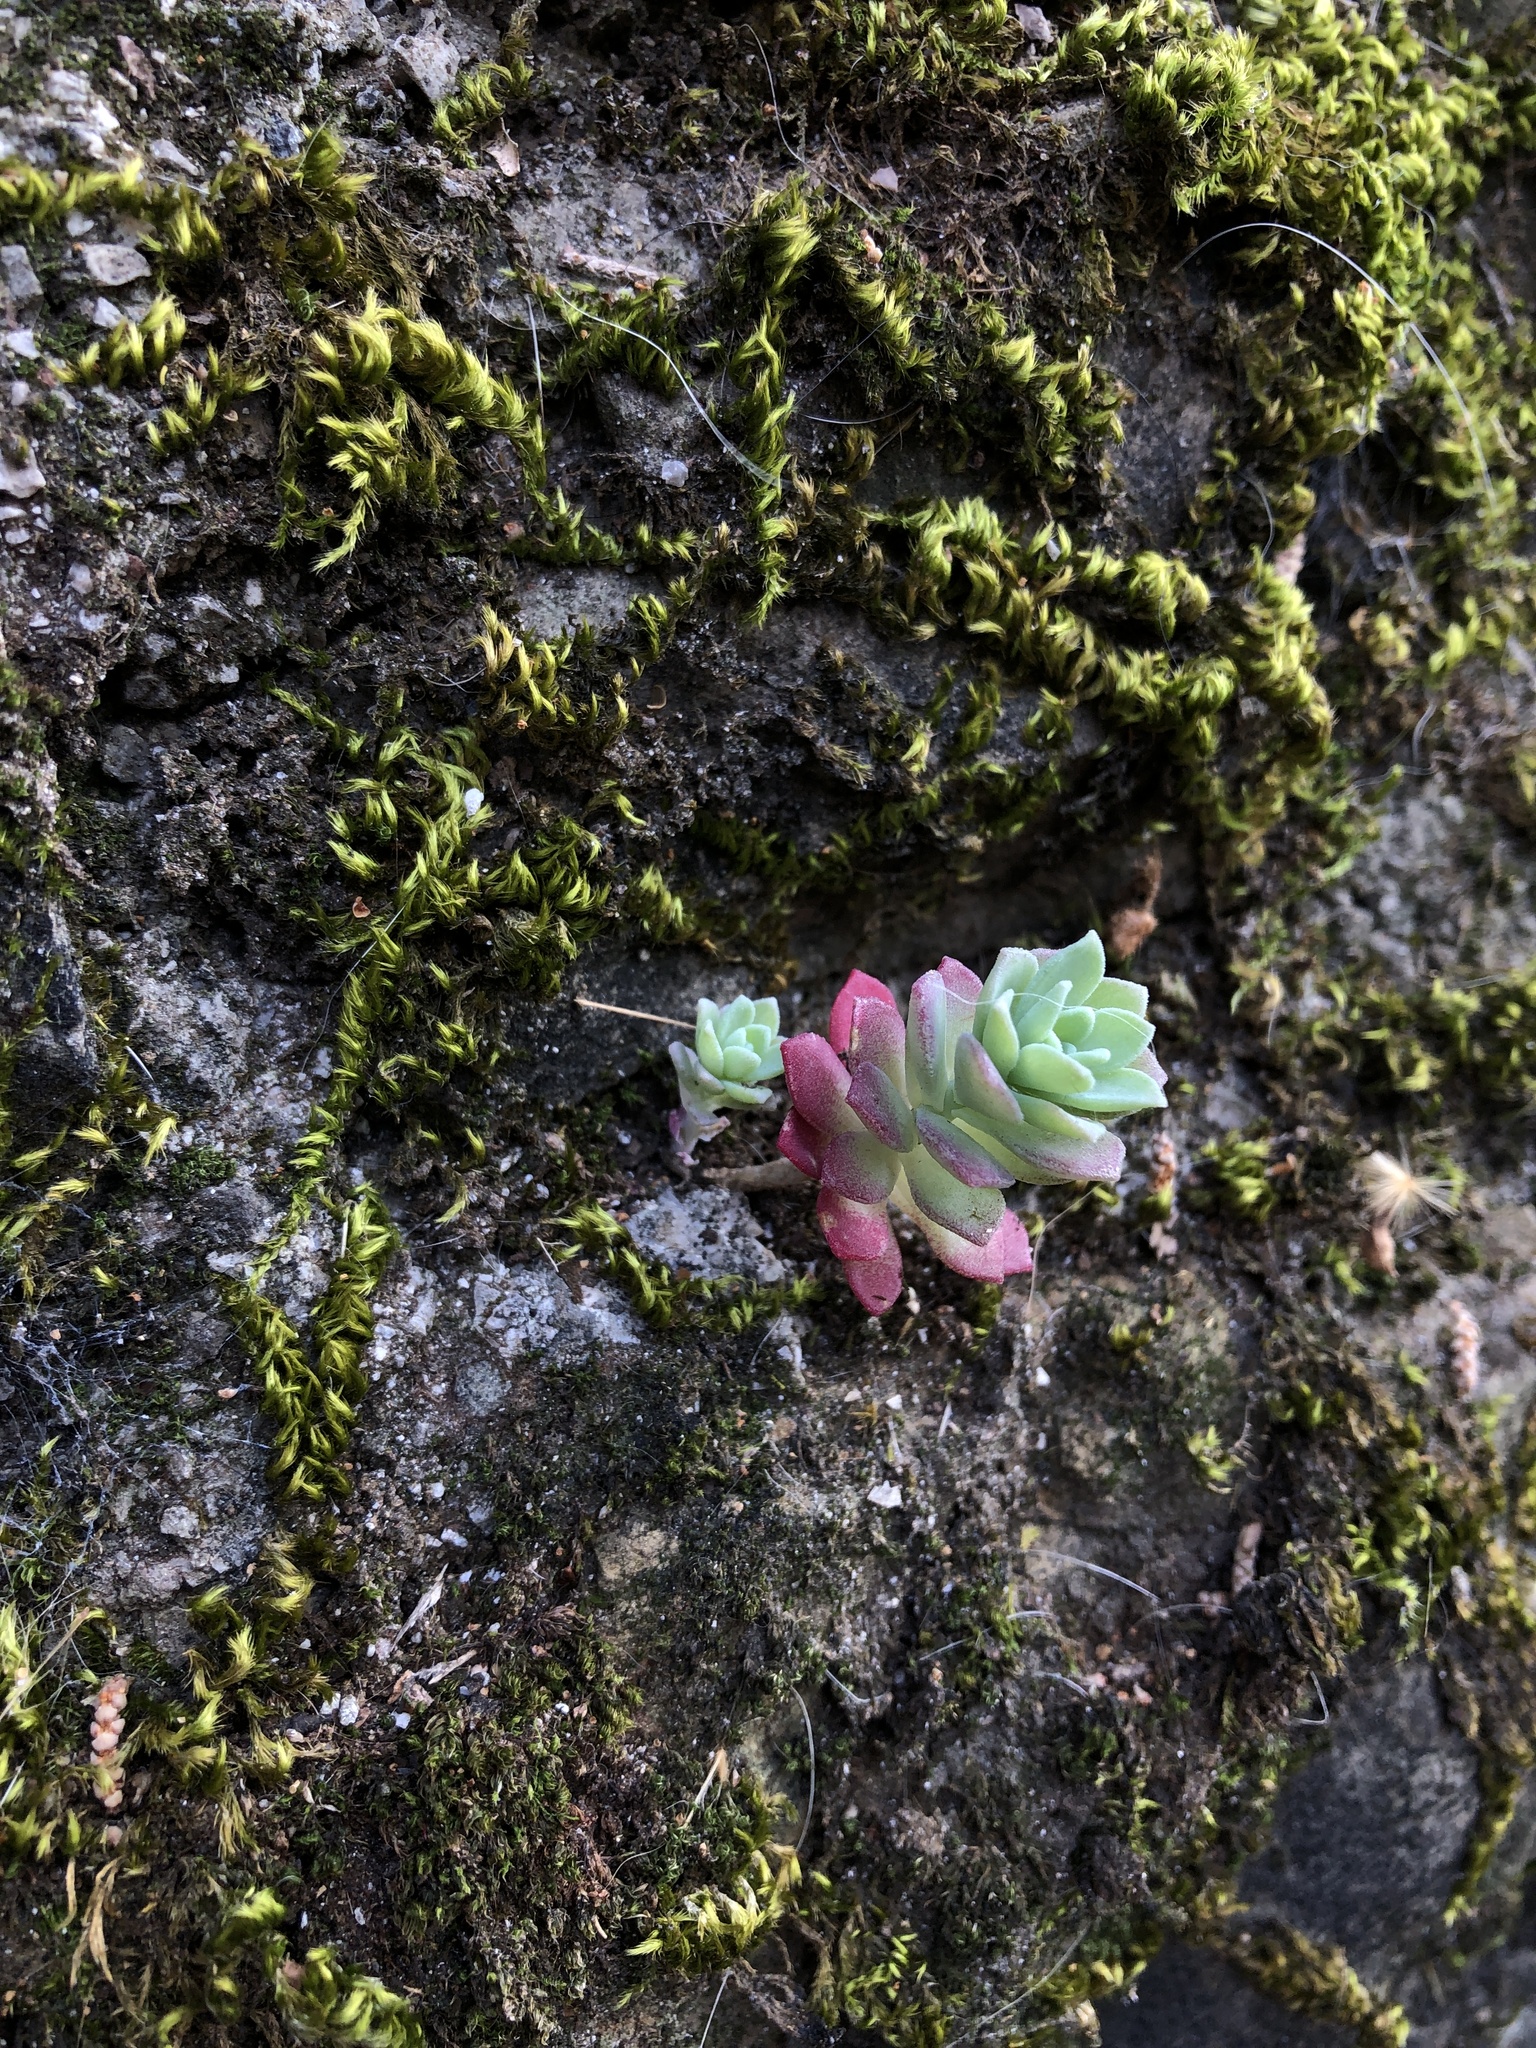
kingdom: Plantae
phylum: Tracheophyta
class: Magnoliopsida
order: Saxifragales
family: Crassulaceae
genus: Sedum
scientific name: Sedum palmeri
